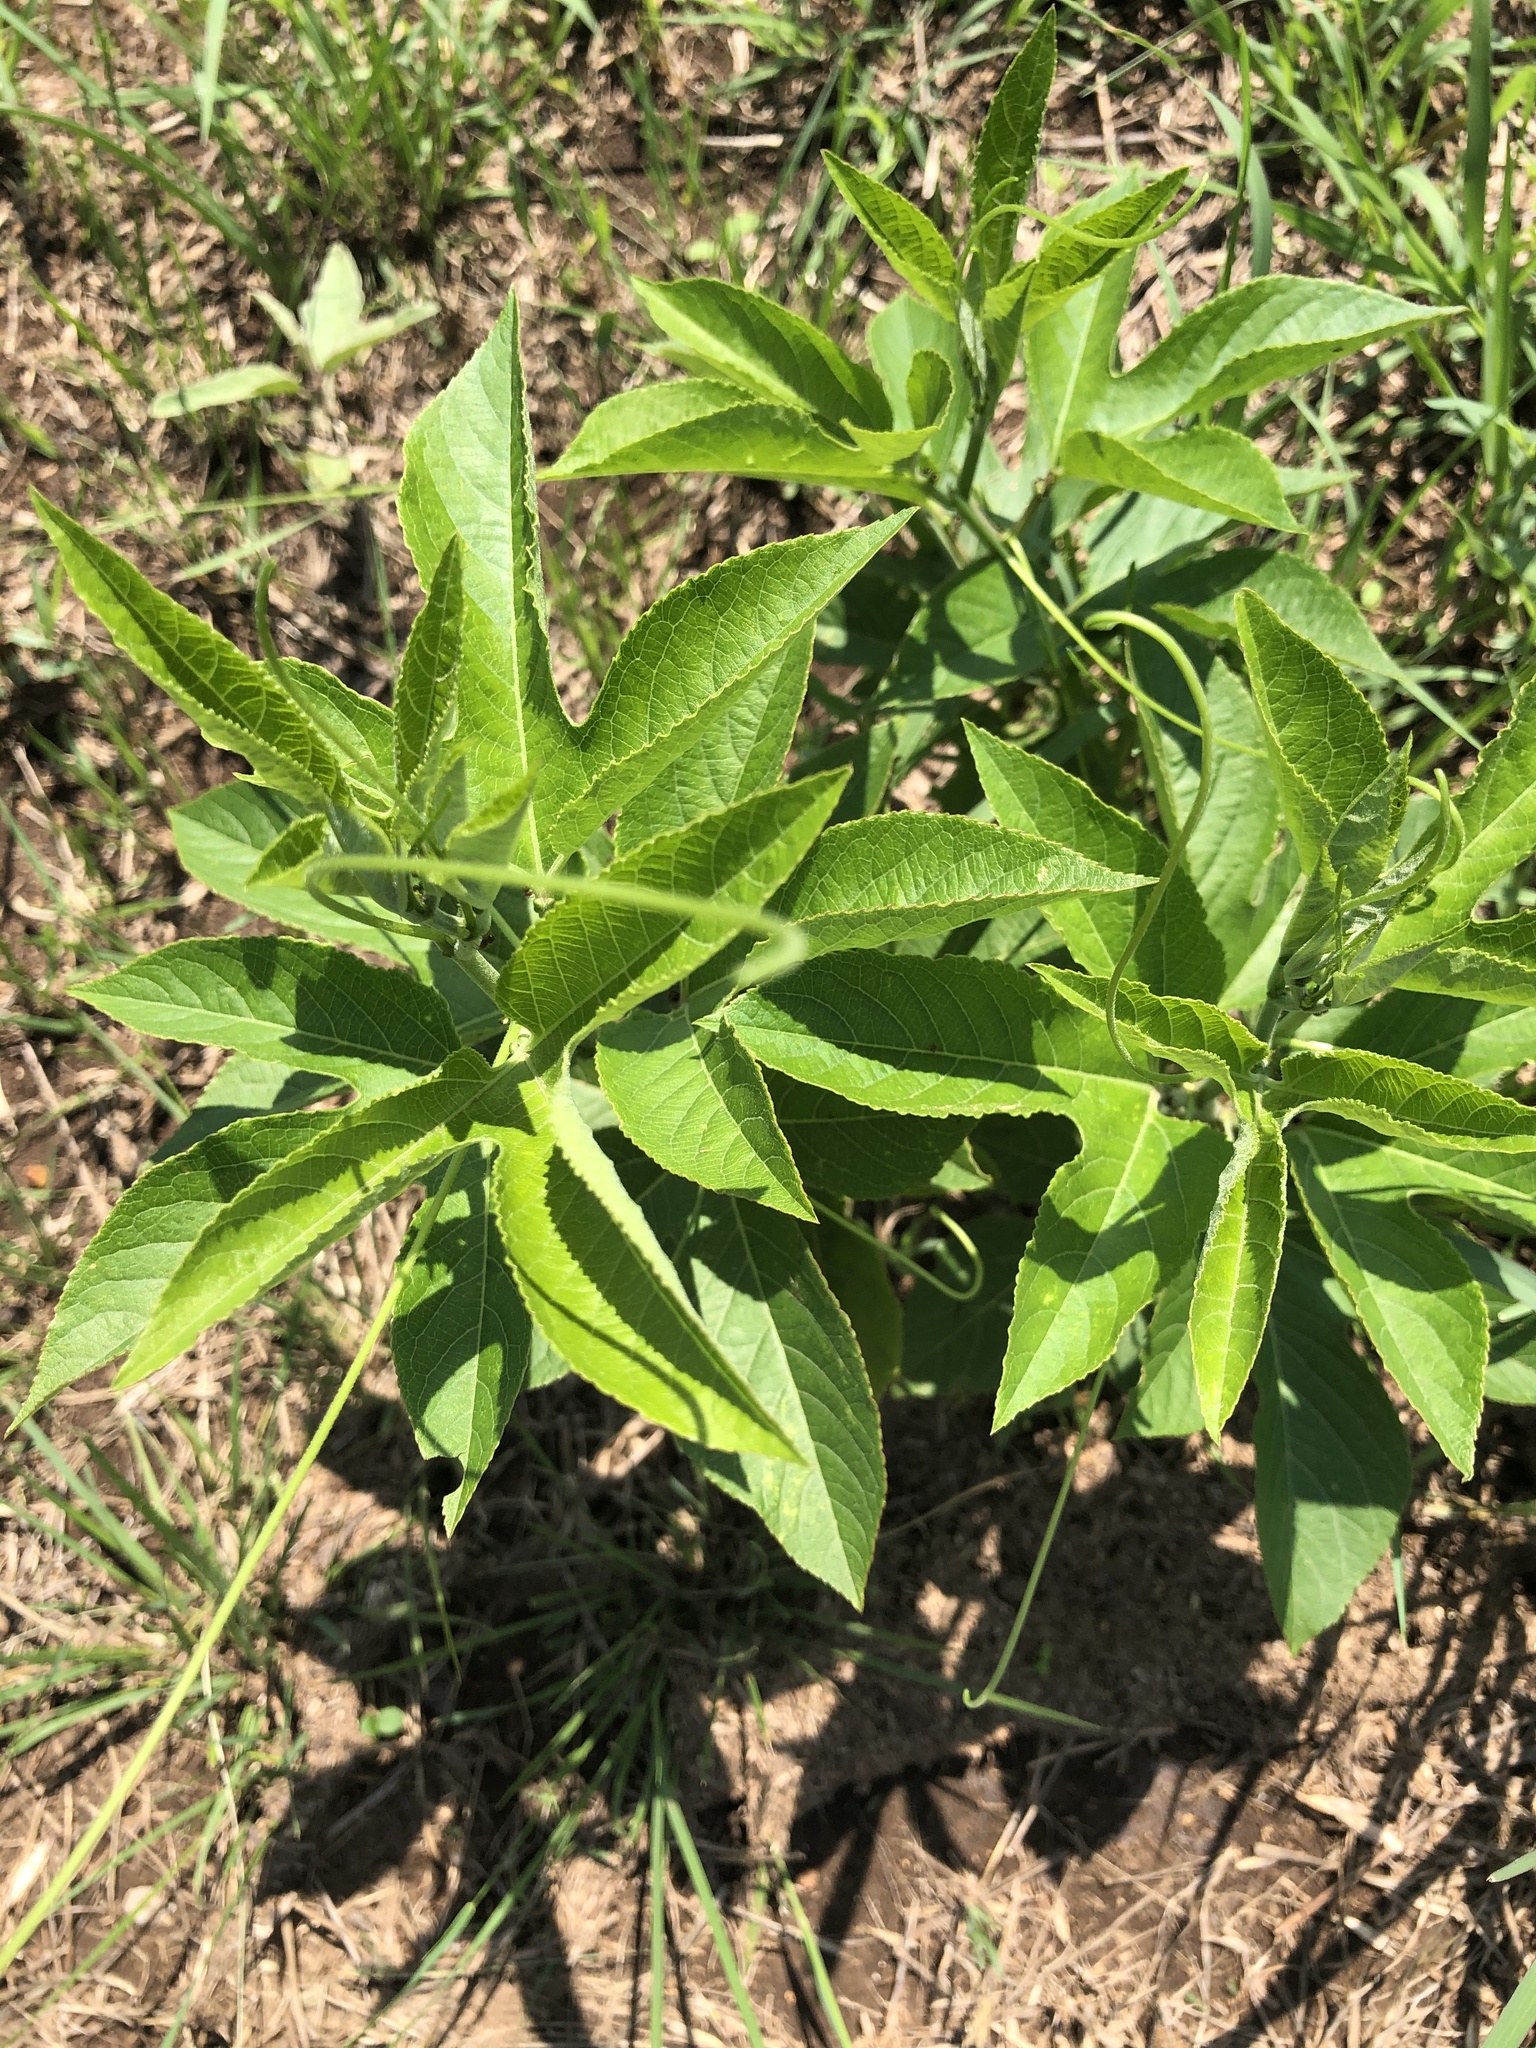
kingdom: Plantae
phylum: Tracheophyta
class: Magnoliopsida
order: Malpighiales
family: Passifloraceae
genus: Passiflora
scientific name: Passiflora incarnata
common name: Apricot-vine
